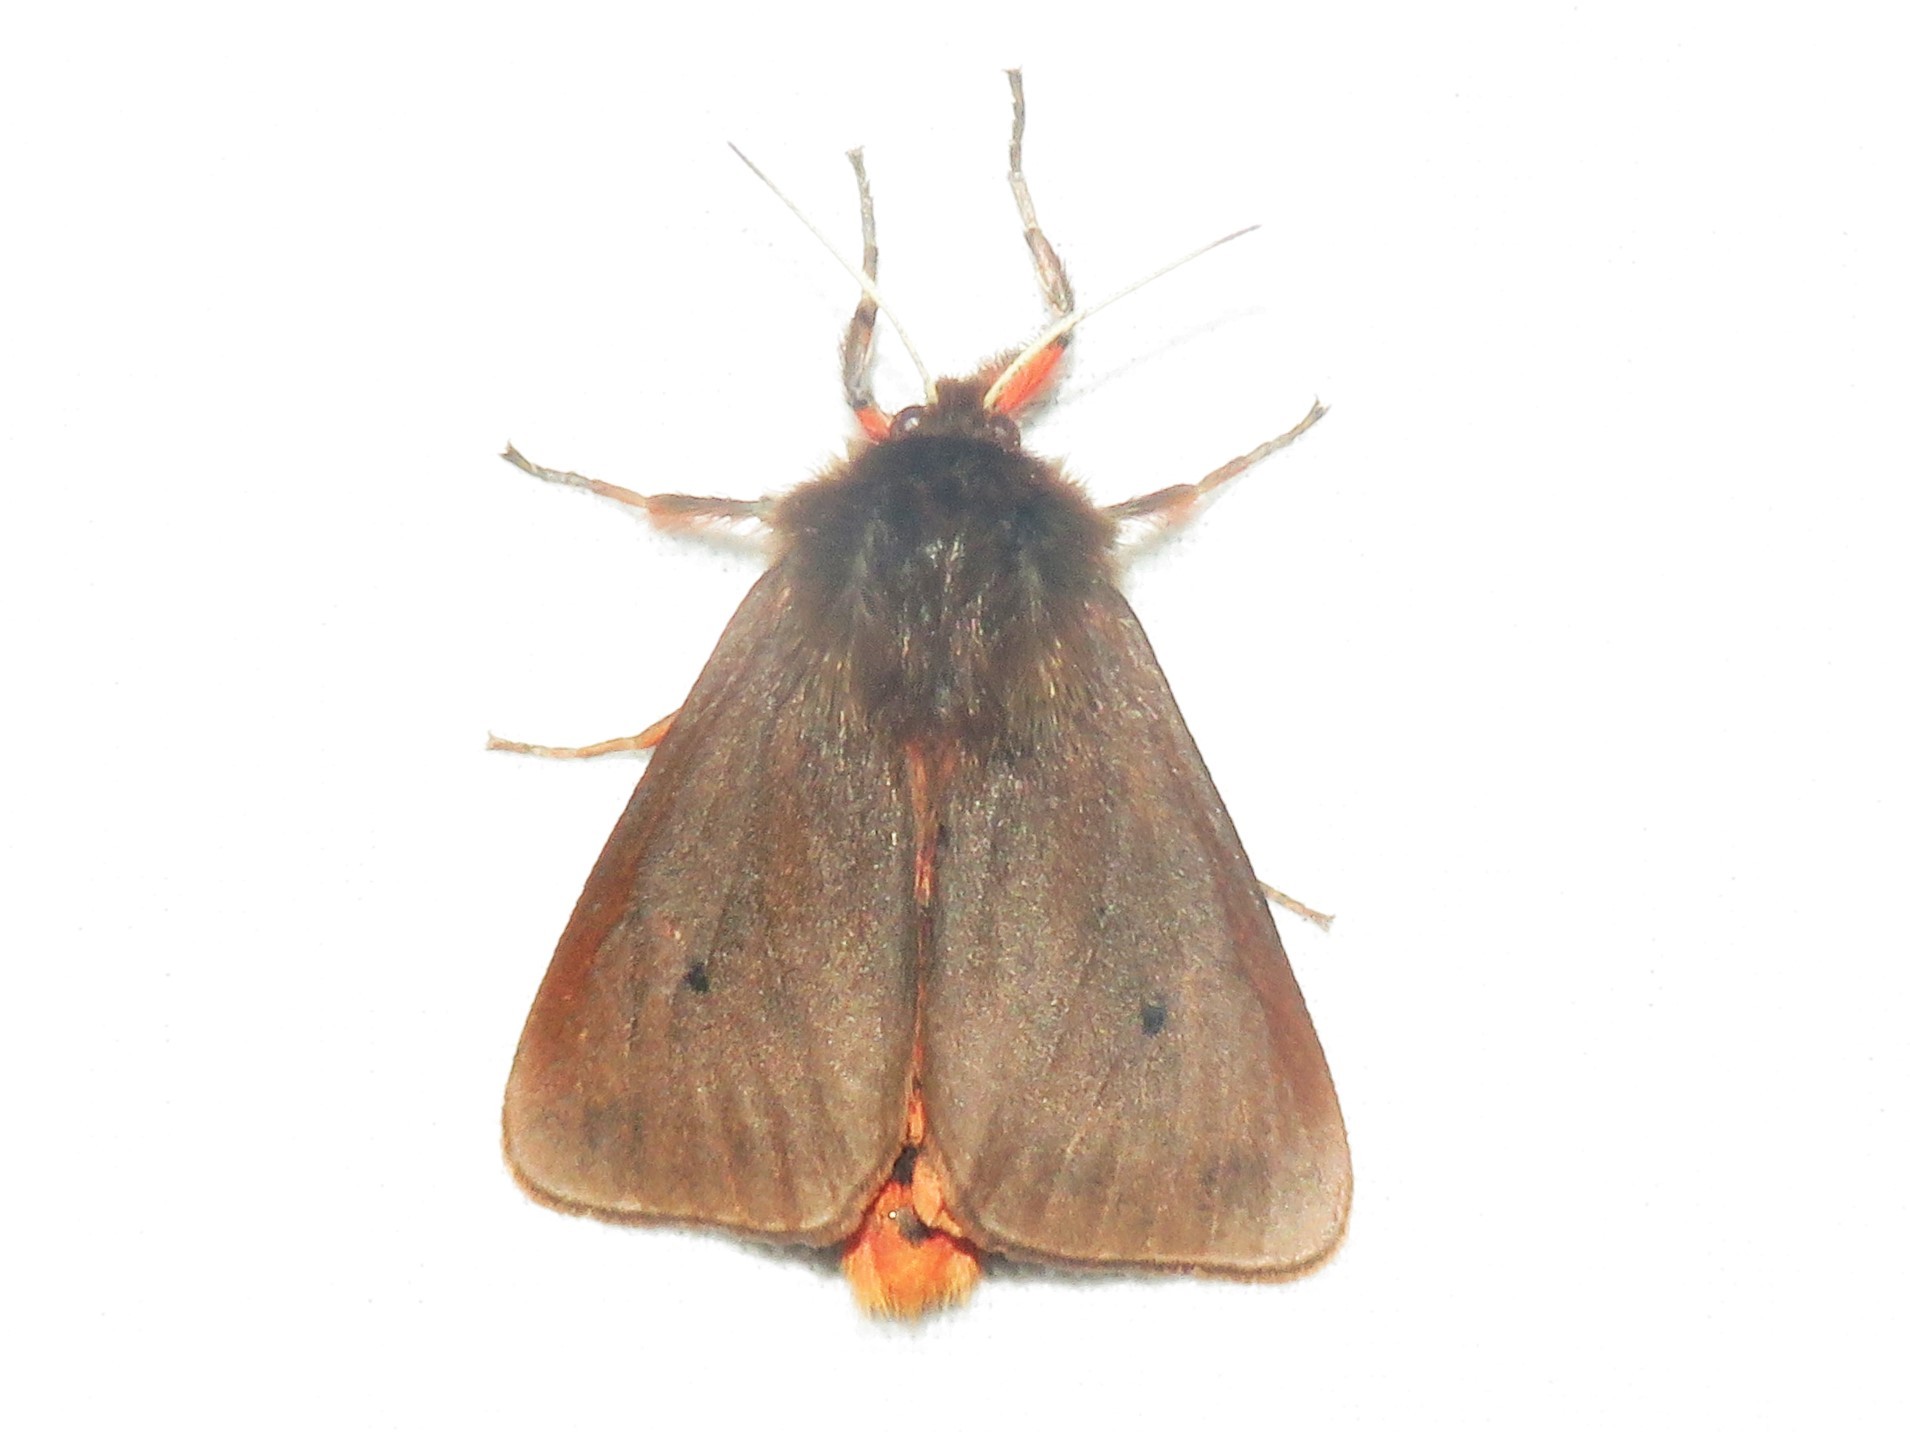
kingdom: Animalia
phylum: Arthropoda
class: Insecta
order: Lepidoptera
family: Erebidae
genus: Phragmatobia
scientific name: Phragmatobia fuliginosa
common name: Ruby tiger
